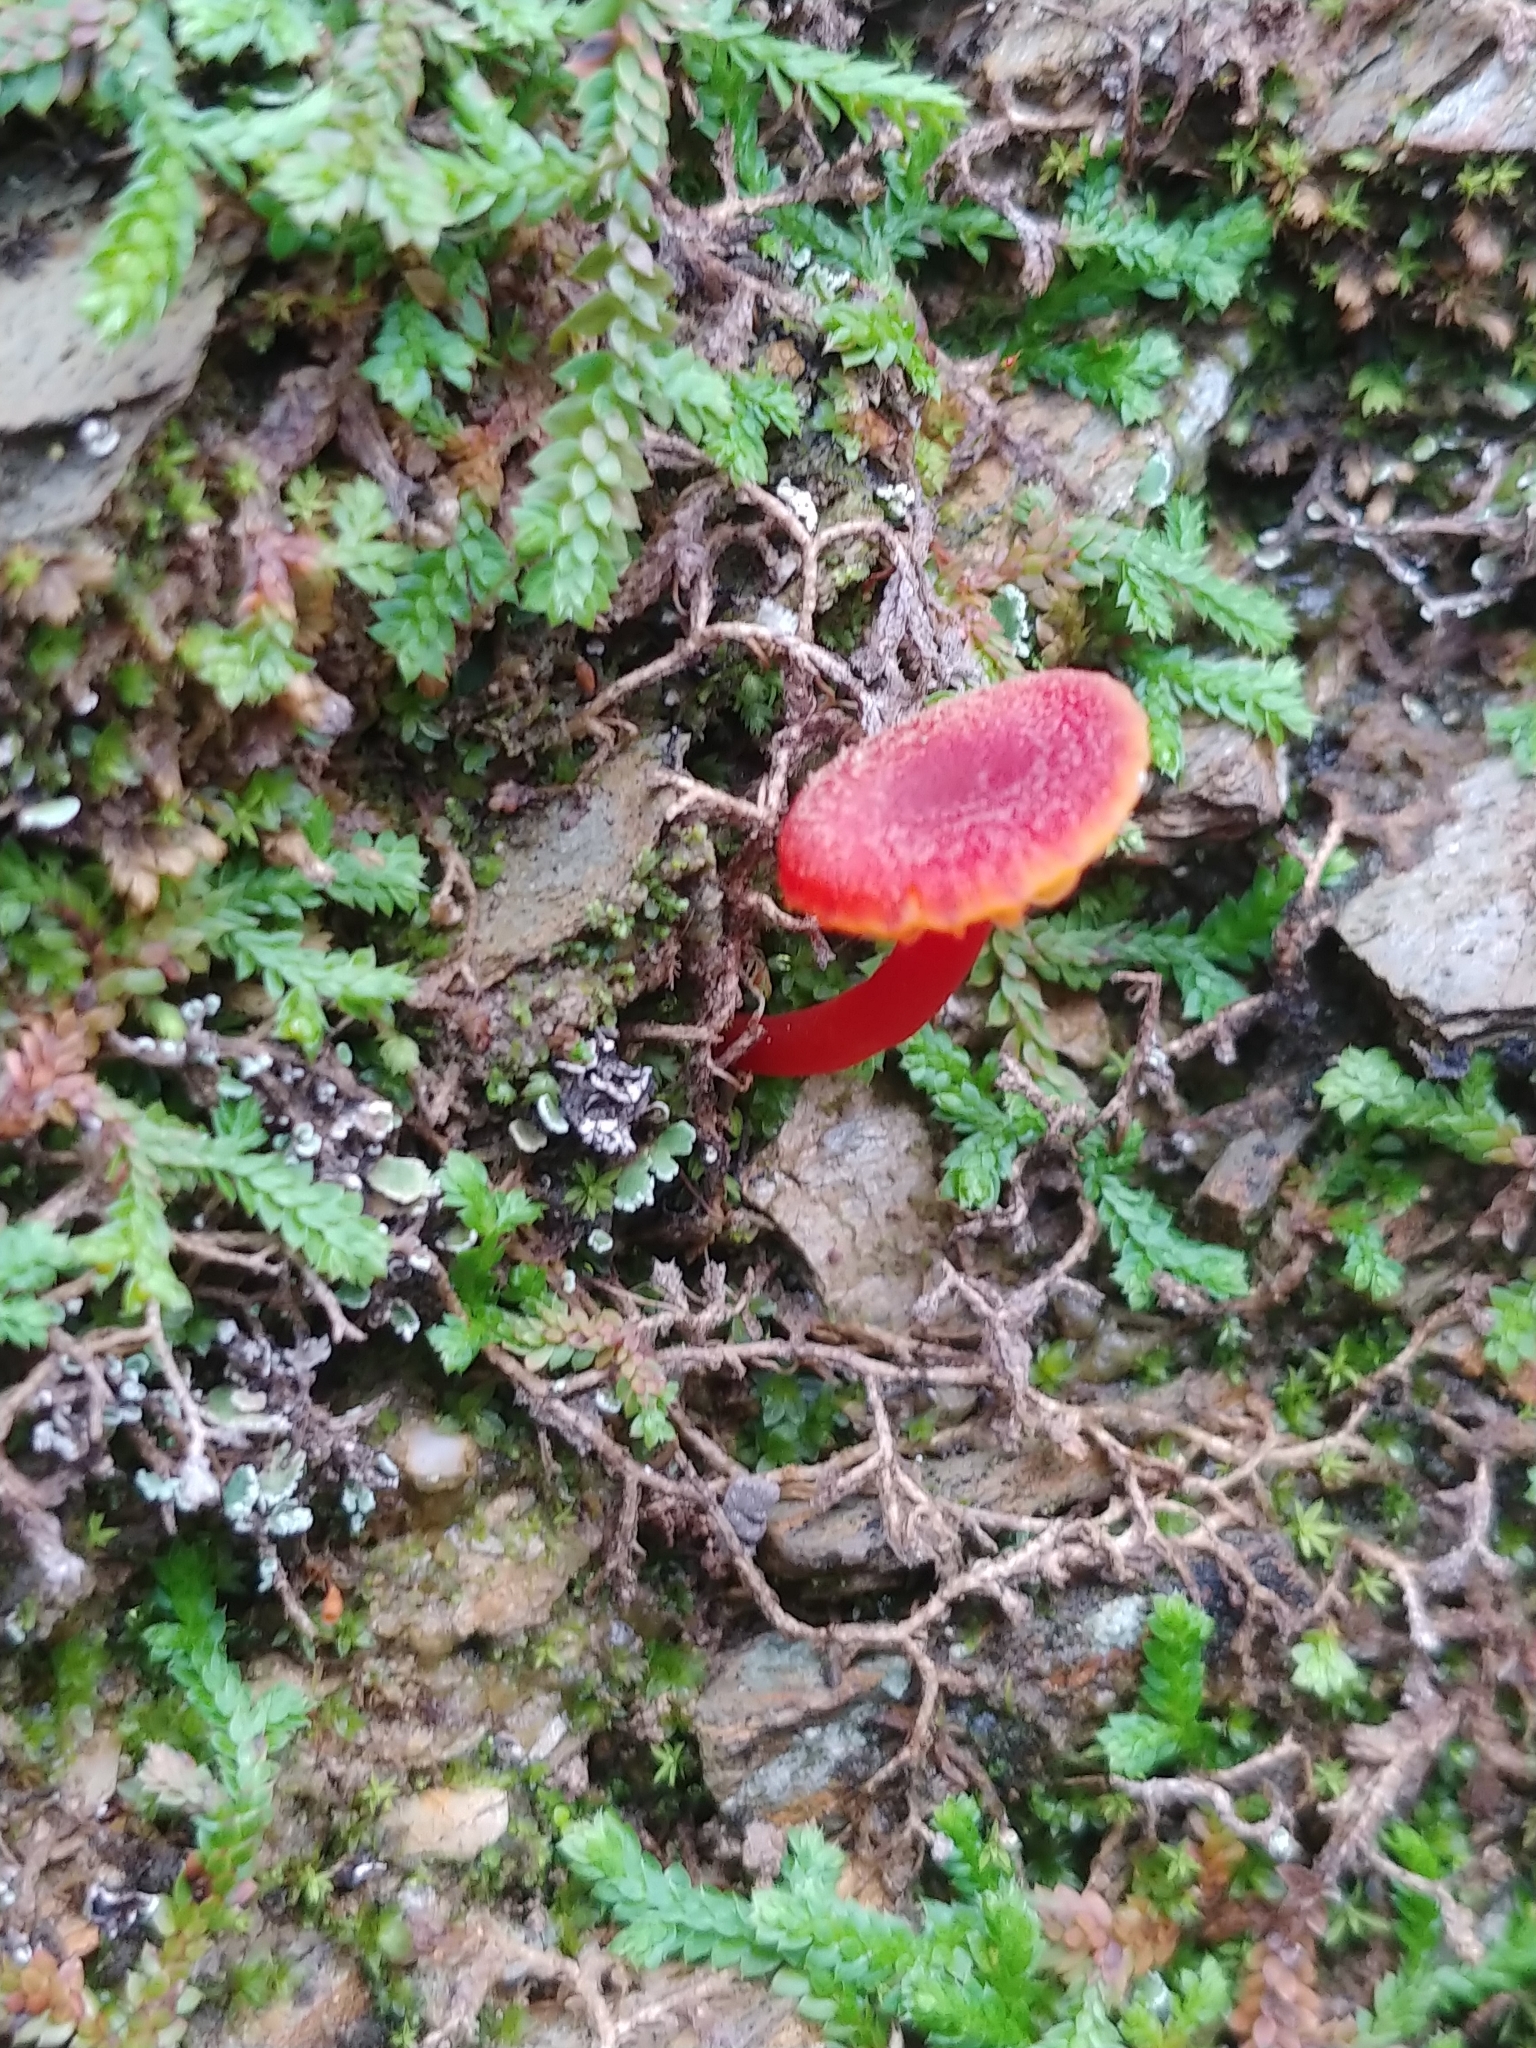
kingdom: Fungi
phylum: Basidiomycota
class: Agaricomycetes
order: Agaricales
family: Hygrophoraceae
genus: Hygrocybe
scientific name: Hygrocybe miniata
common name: Vermilion waxcap
